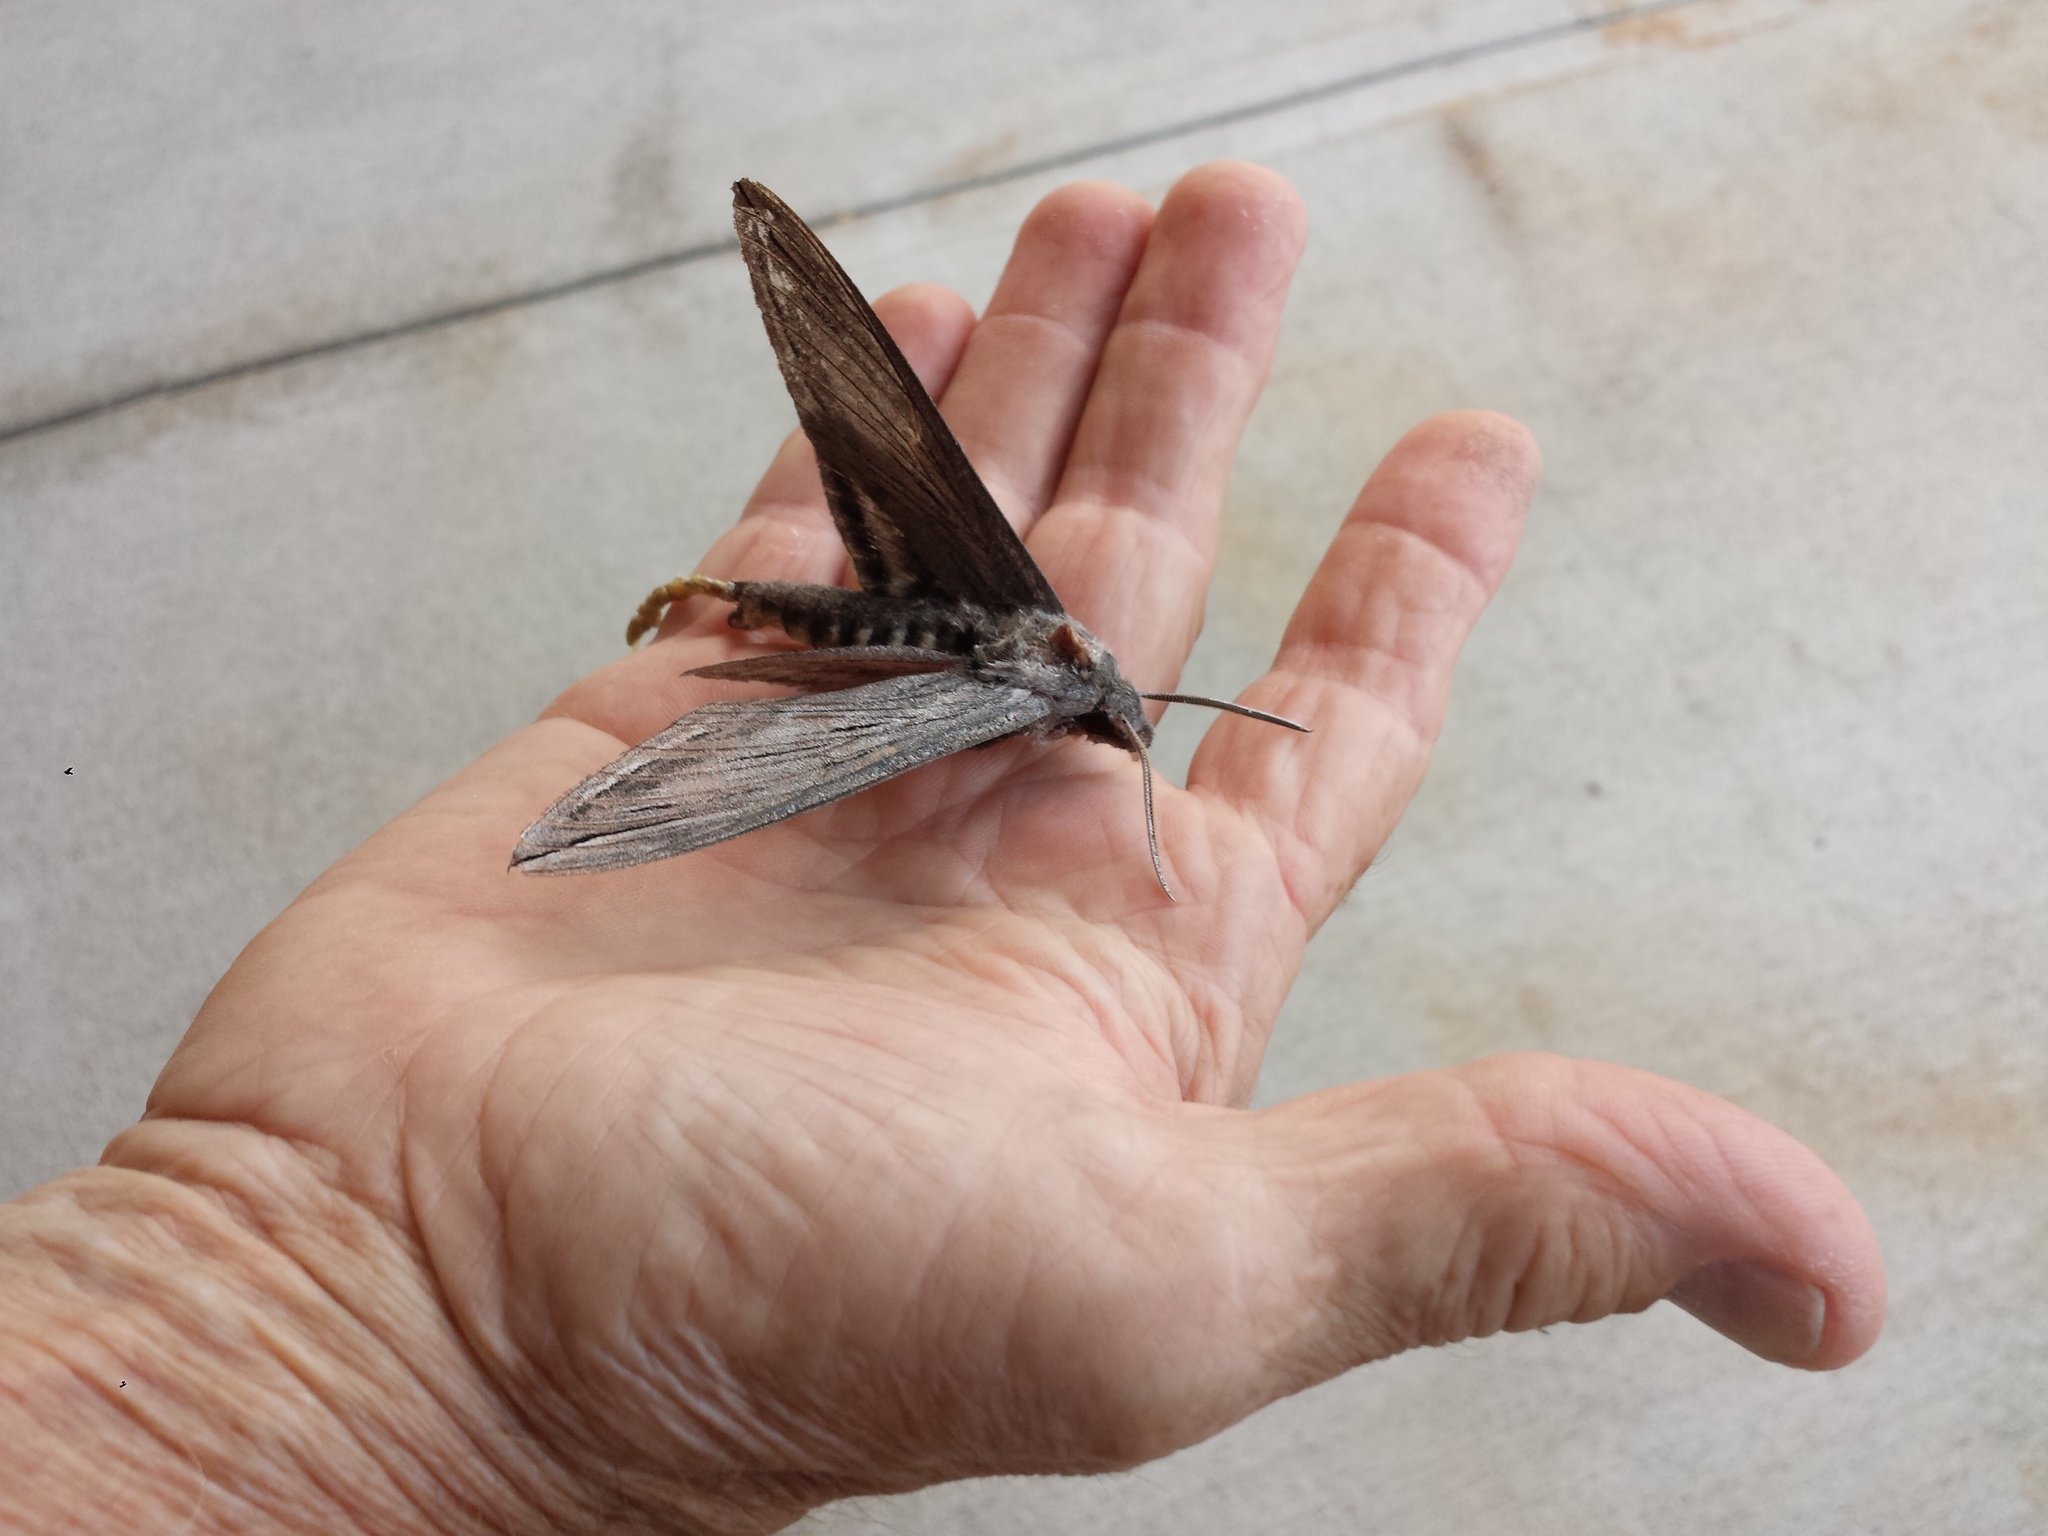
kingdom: Animalia
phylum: Arthropoda
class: Insecta
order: Lepidoptera
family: Sphingidae
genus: Sphinx
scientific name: Sphinx chersis
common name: Great ash sphinx
